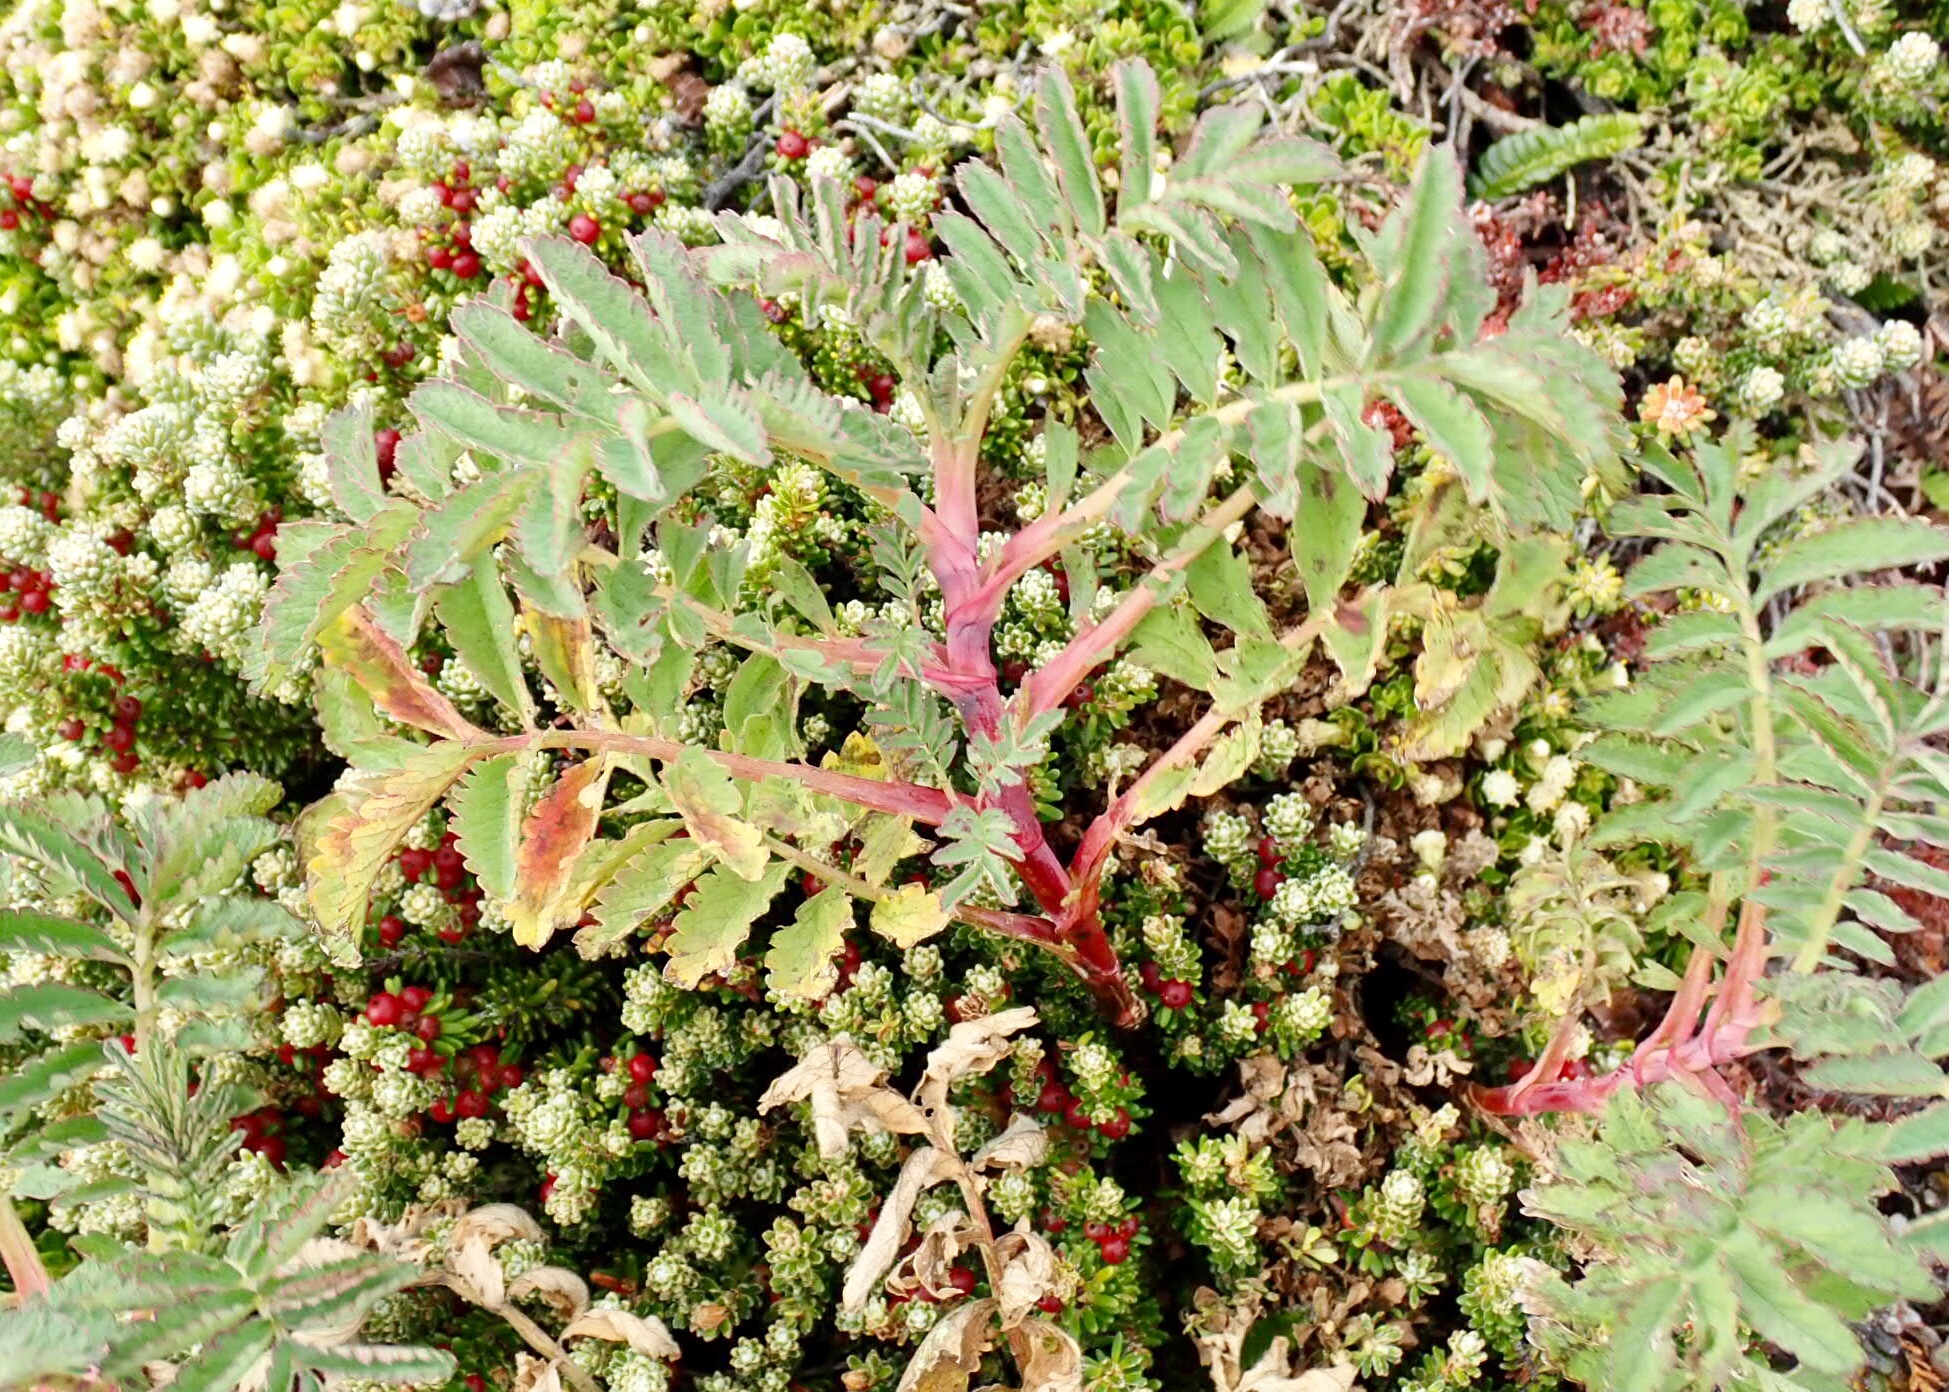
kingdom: Plantae
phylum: Tracheophyta
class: Magnoliopsida
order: Rosales
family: Rosaceae
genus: Acaena
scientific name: Acaena magellanica
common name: New zealand burr
